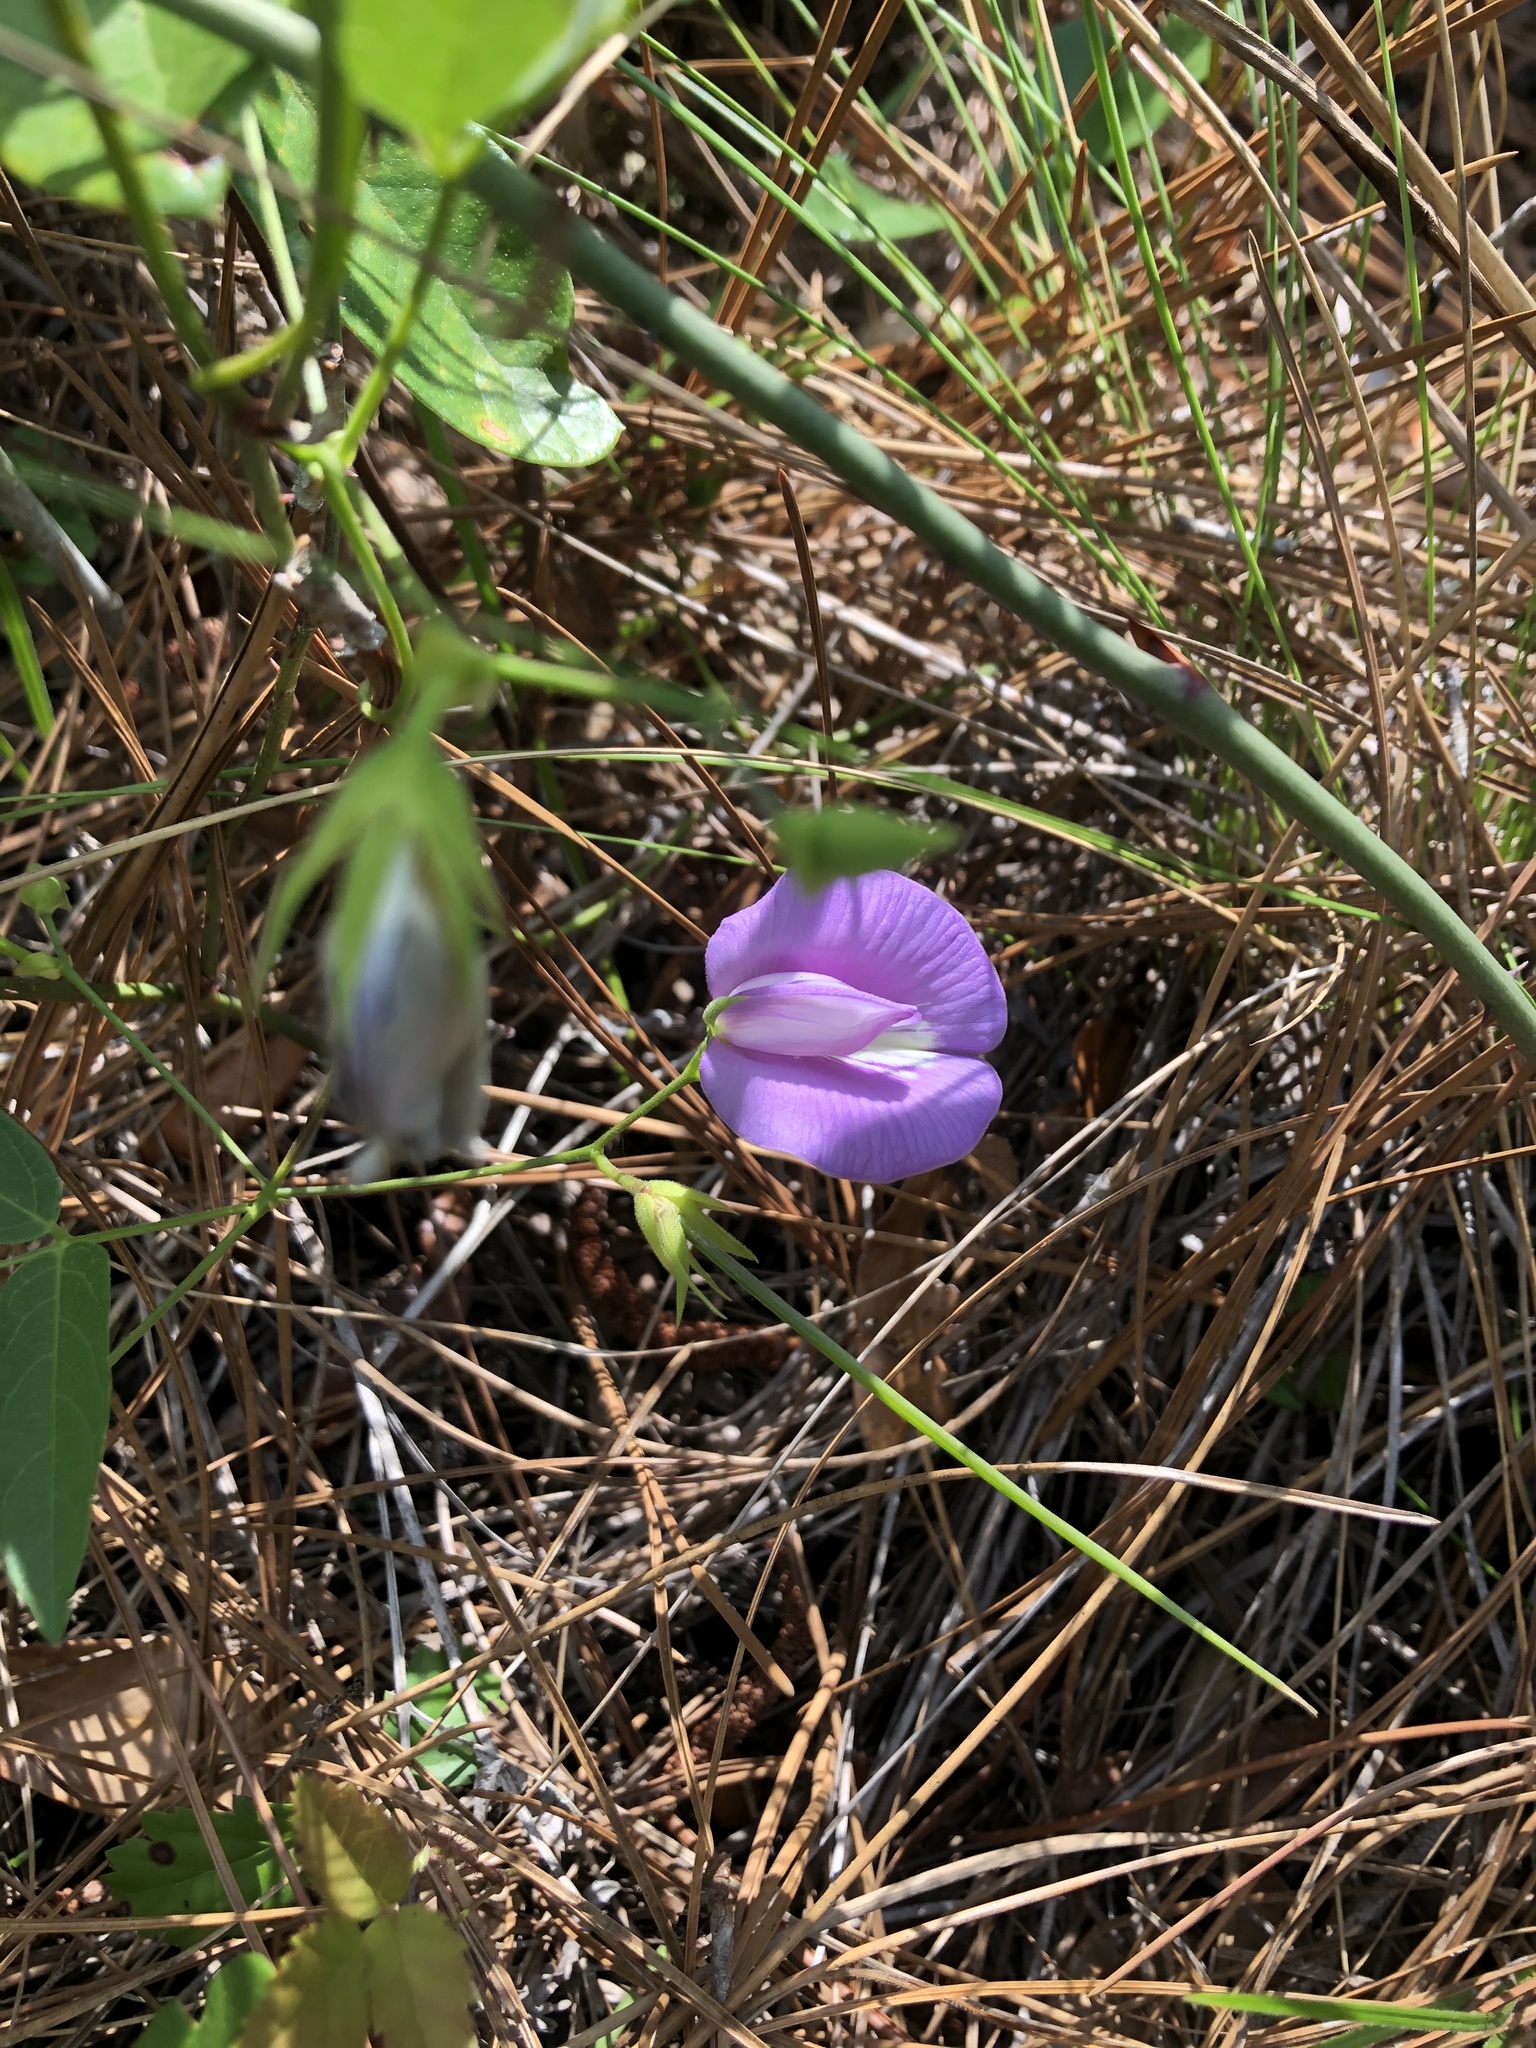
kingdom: Plantae
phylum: Tracheophyta
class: Magnoliopsida
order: Fabales
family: Fabaceae
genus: Centrosema
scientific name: Centrosema virginianum
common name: Butterfly-pea
